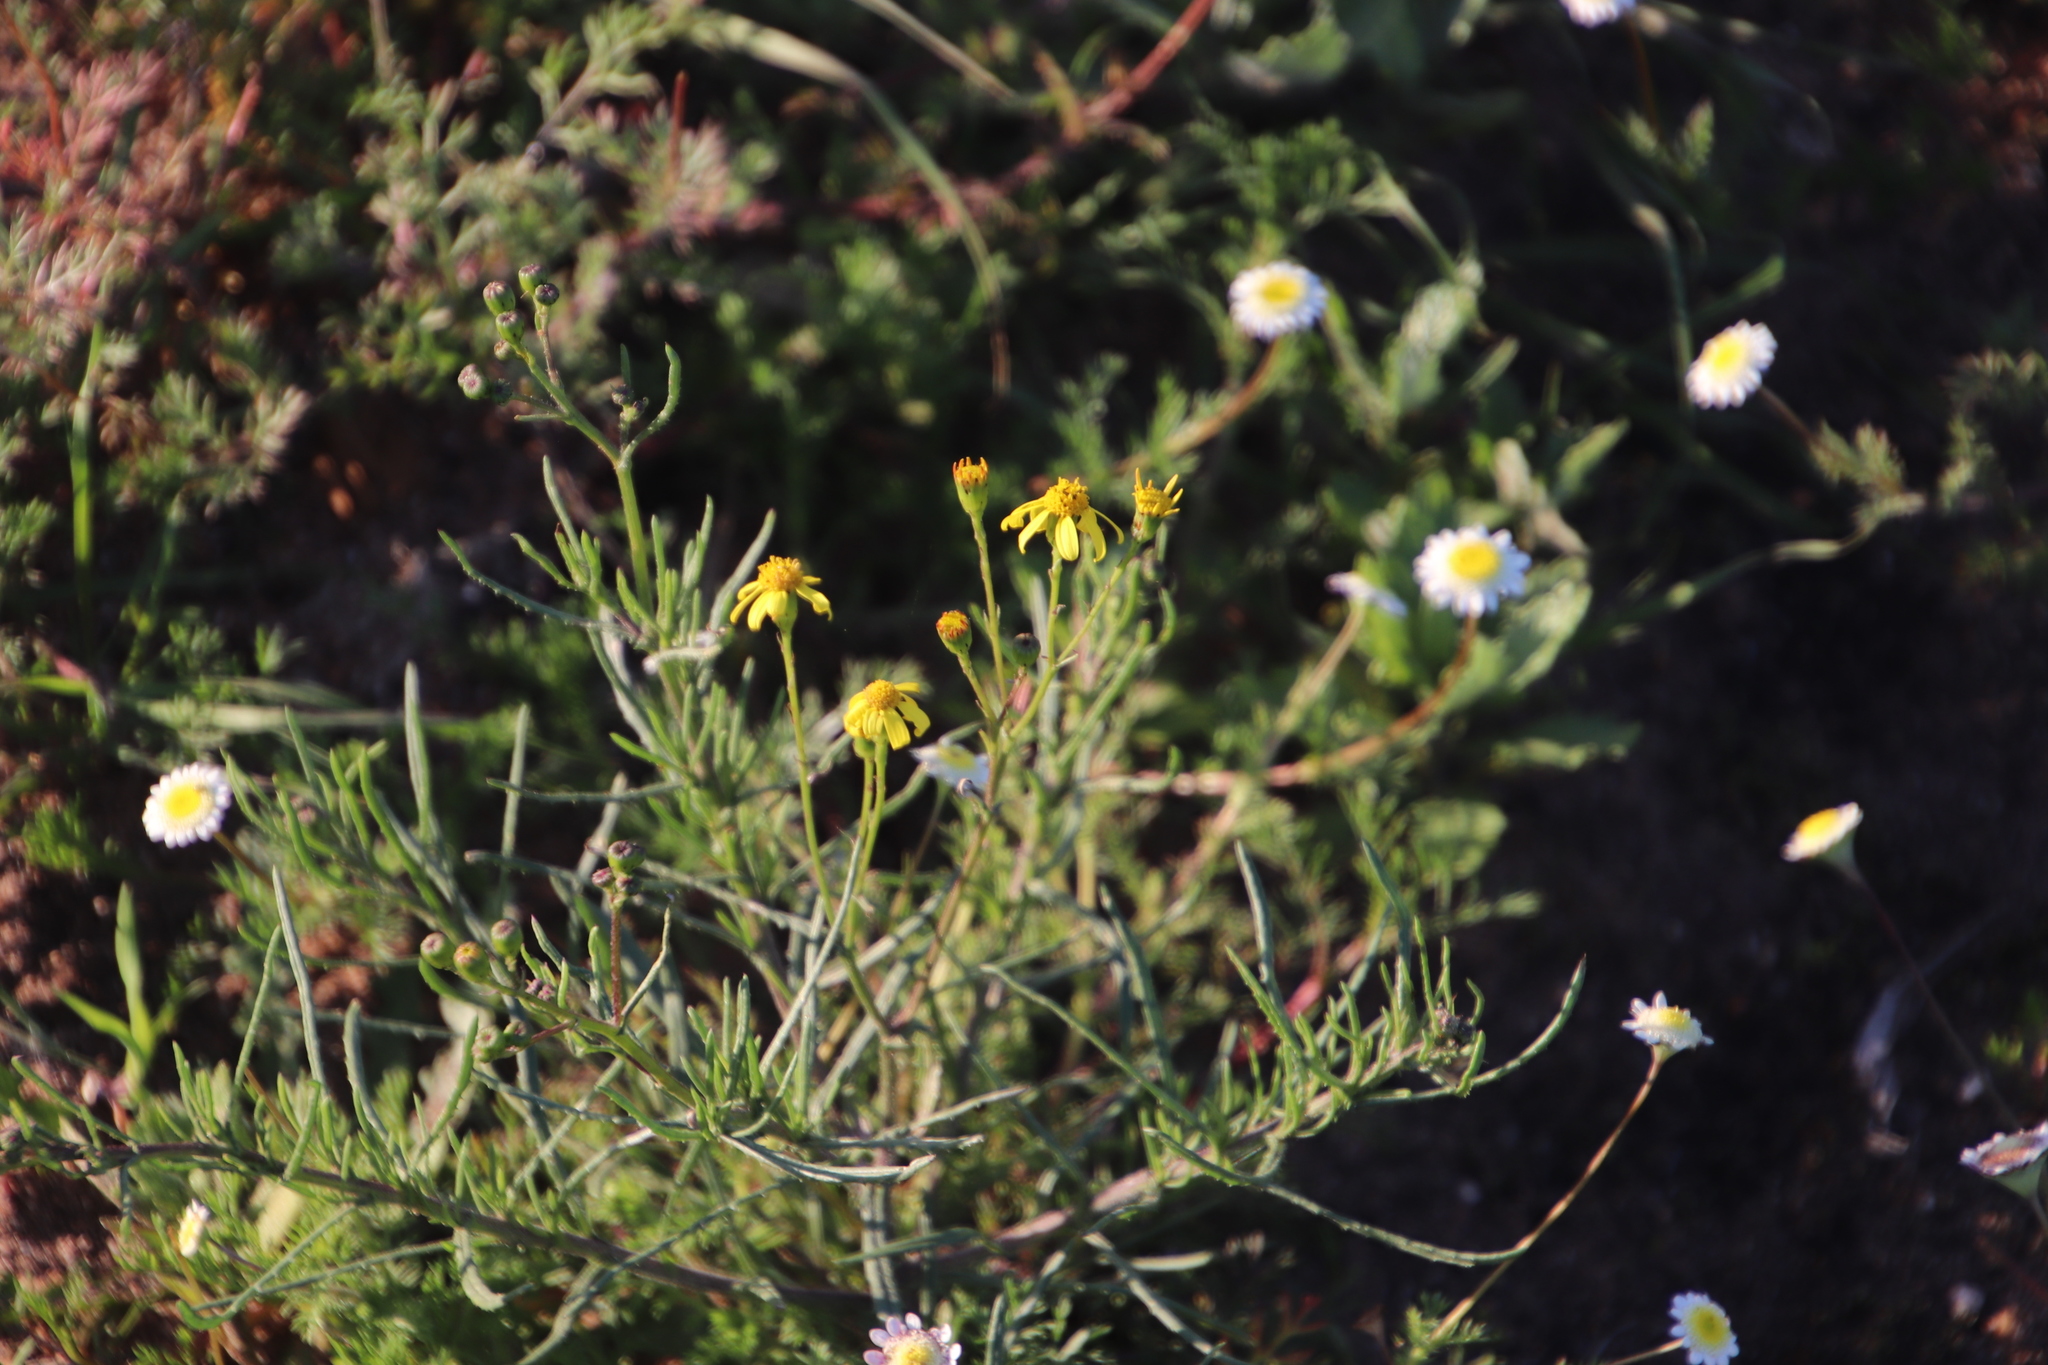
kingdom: Plantae
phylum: Tracheophyta
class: Magnoliopsida
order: Asterales
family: Asteraceae
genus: Senecio
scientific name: Senecio burchellii
